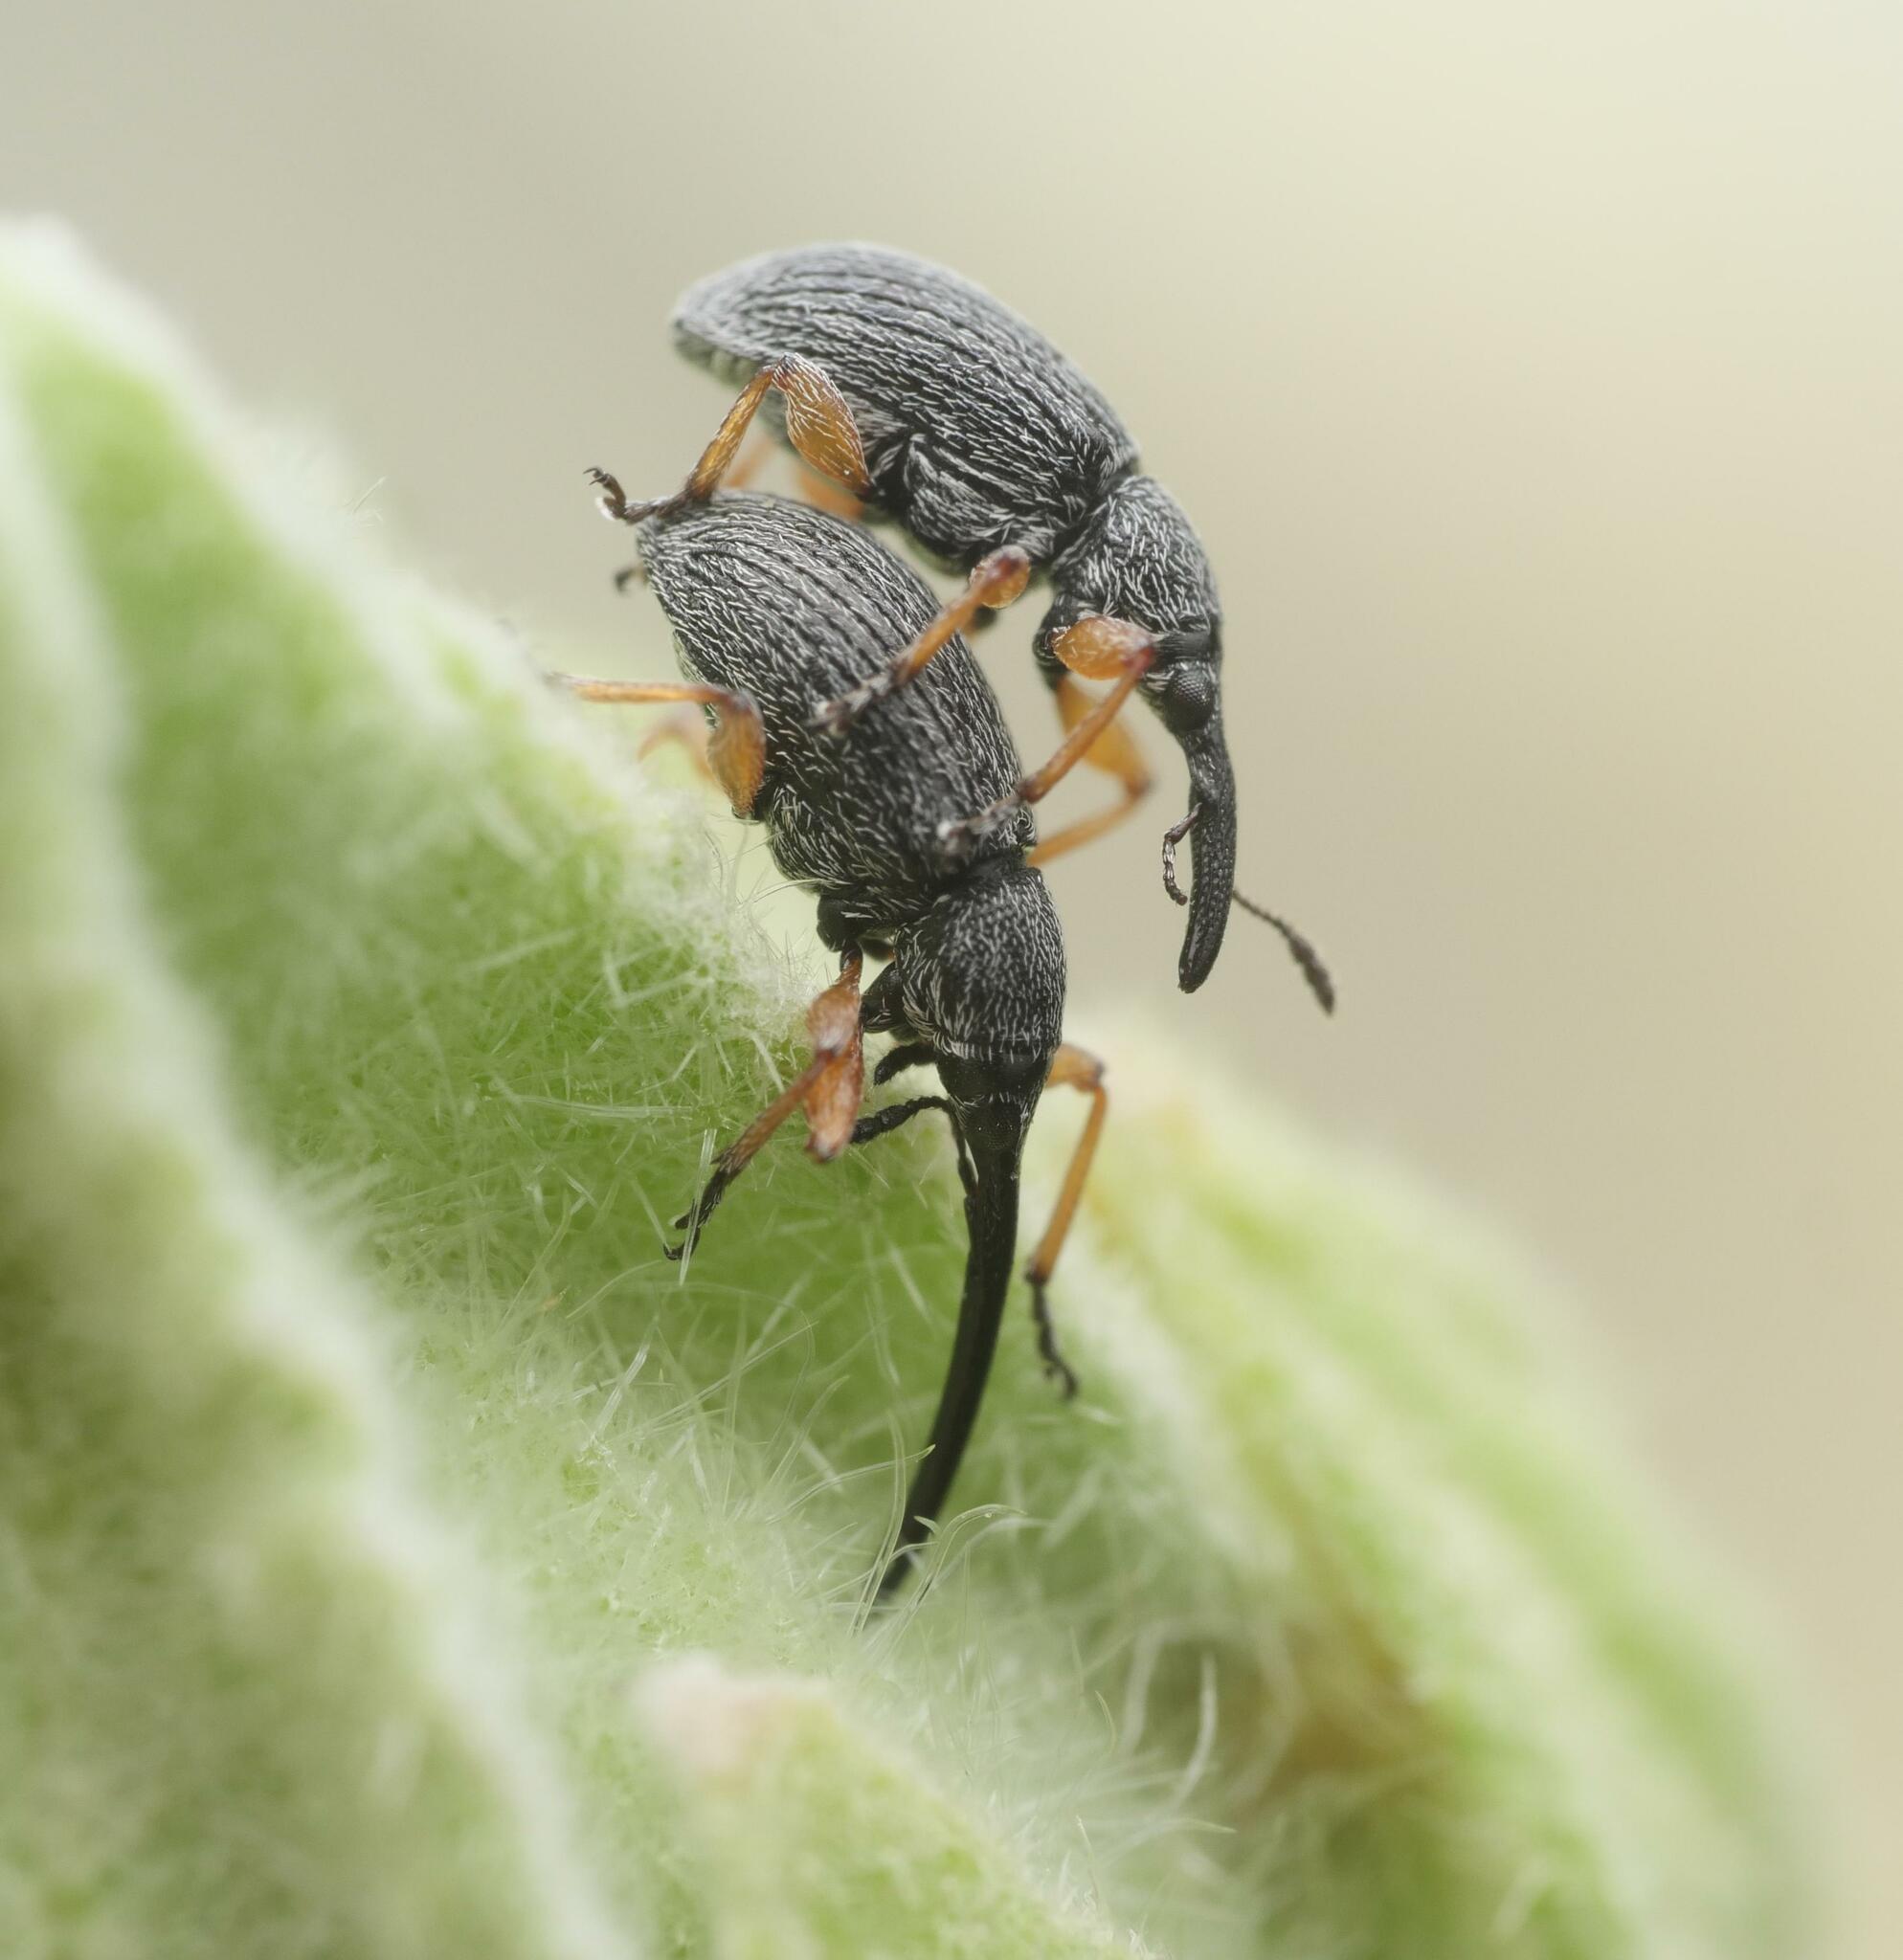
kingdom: Animalia
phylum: Arthropoda
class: Insecta
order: Coleoptera
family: Brentidae
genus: Rhopalapion
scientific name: Rhopalapion longirostre
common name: Hollyhock weevil
